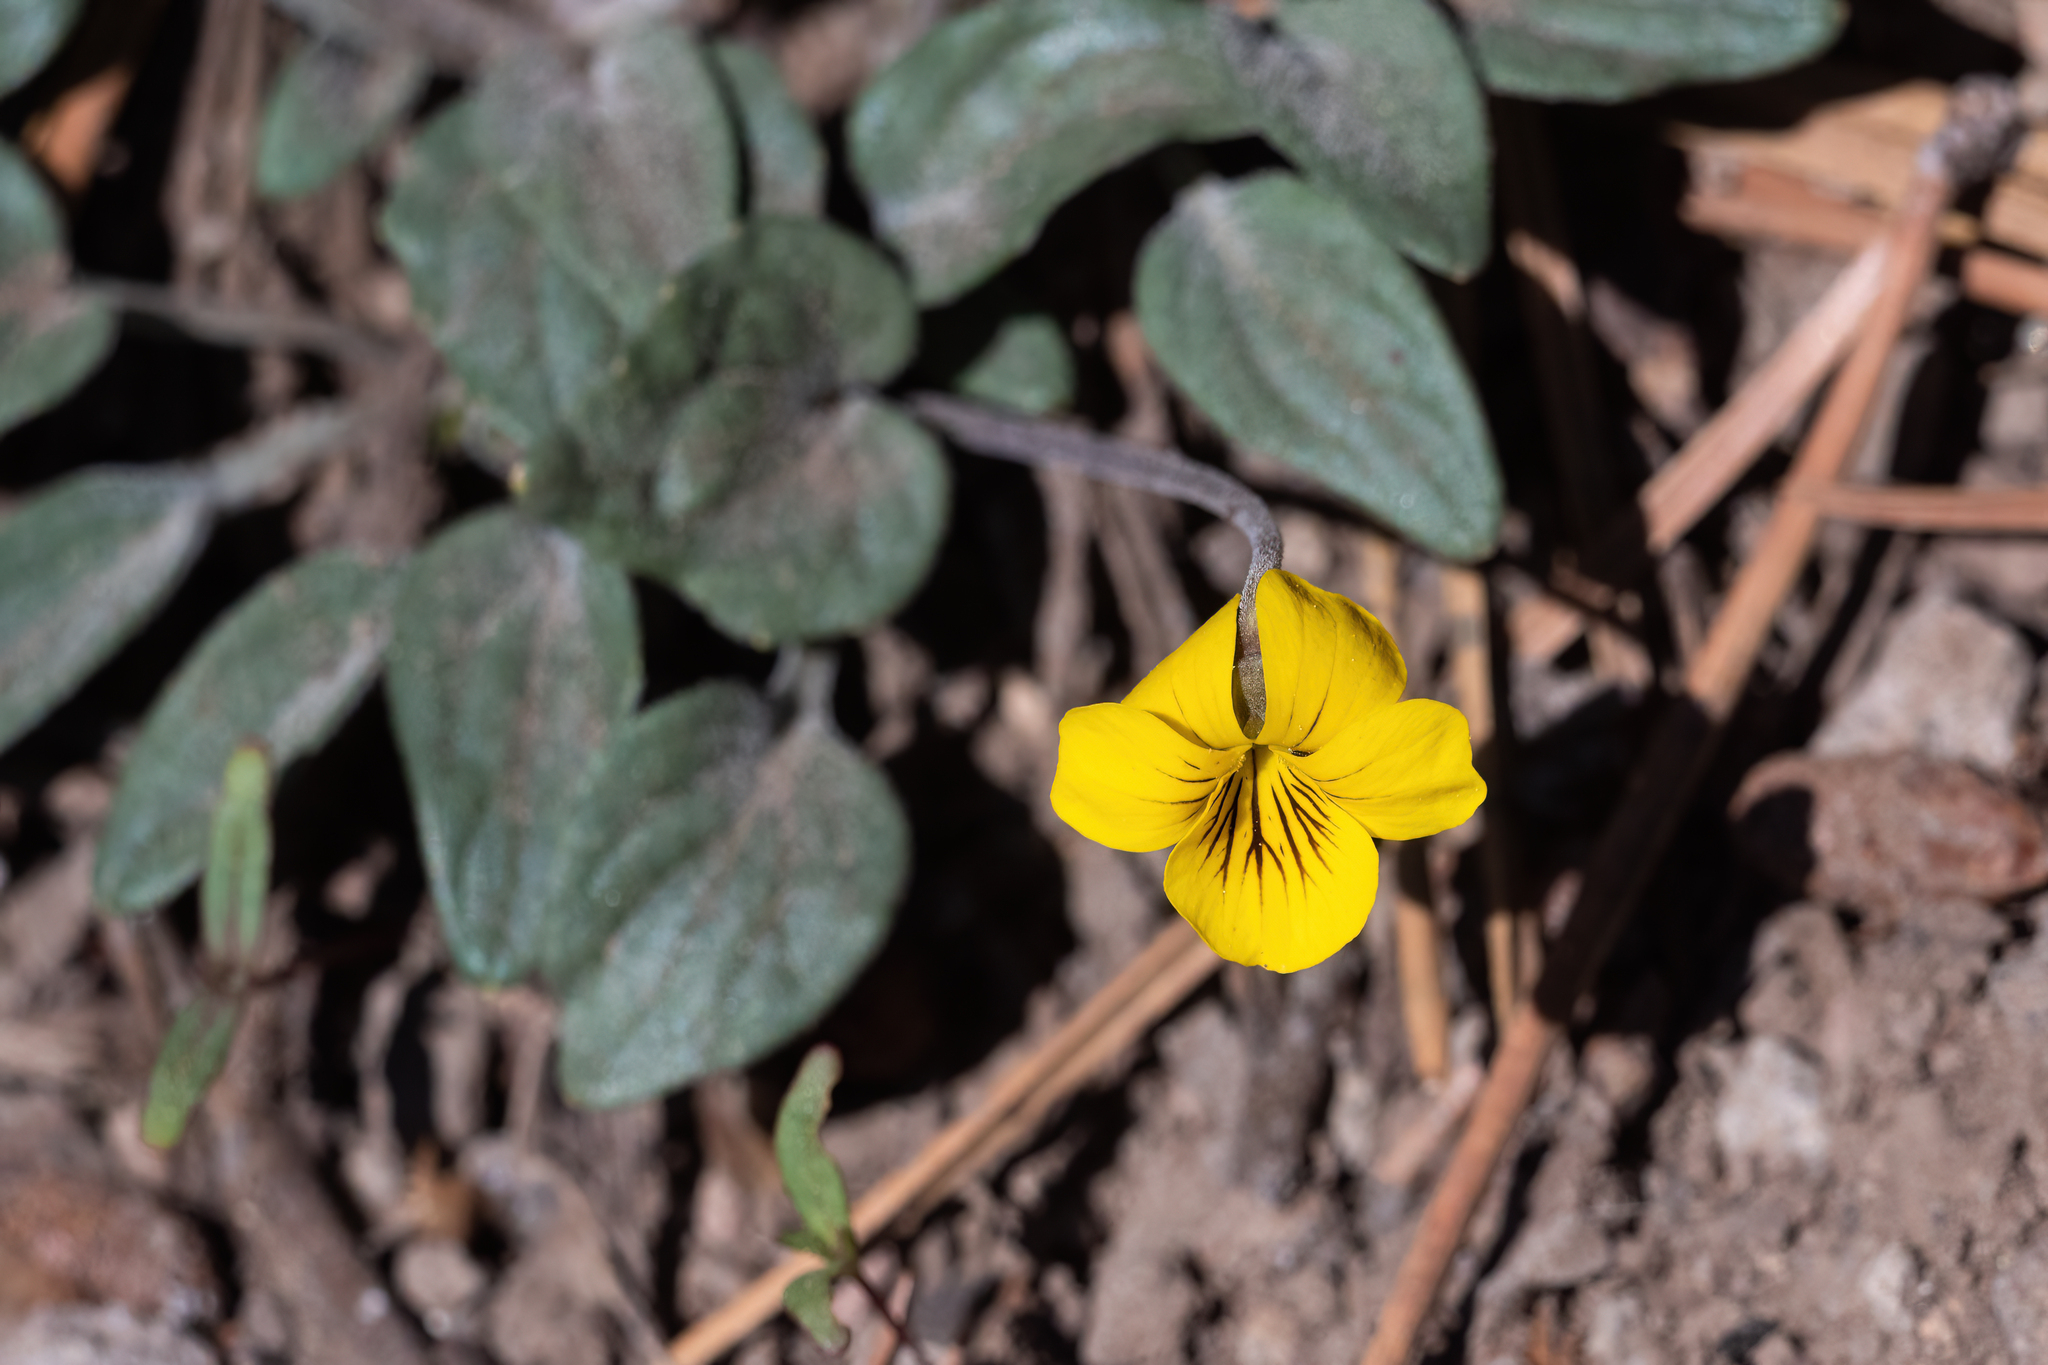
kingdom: Plantae
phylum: Tracheophyta
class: Magnoliopsida
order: Malpighiales
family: Violaceae
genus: Viola
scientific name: Viola purpurea
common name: Pine violet
